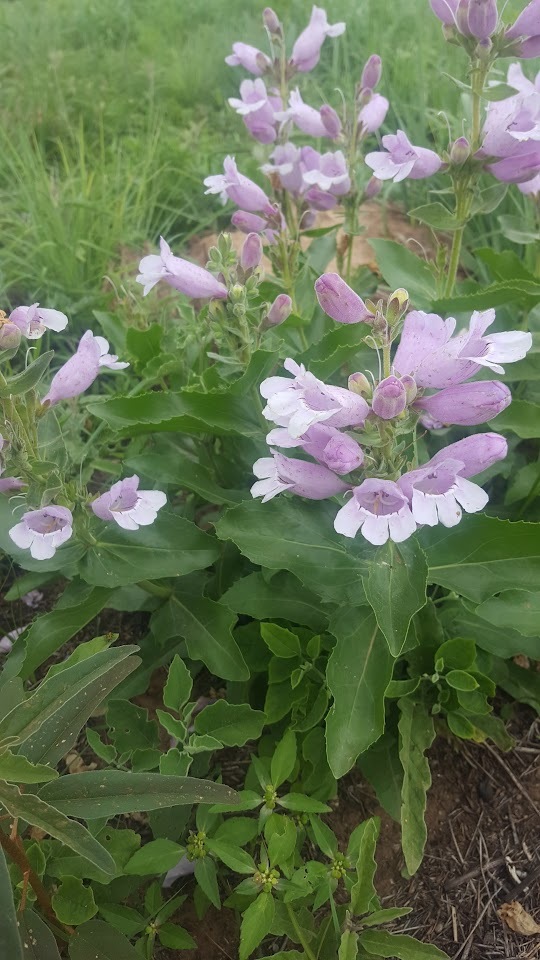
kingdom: Plantae
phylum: Tracheophyta
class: Magnoliopsida
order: Lamiales
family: Plantaginaceae
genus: Penstemon
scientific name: Penstemon cobaea
